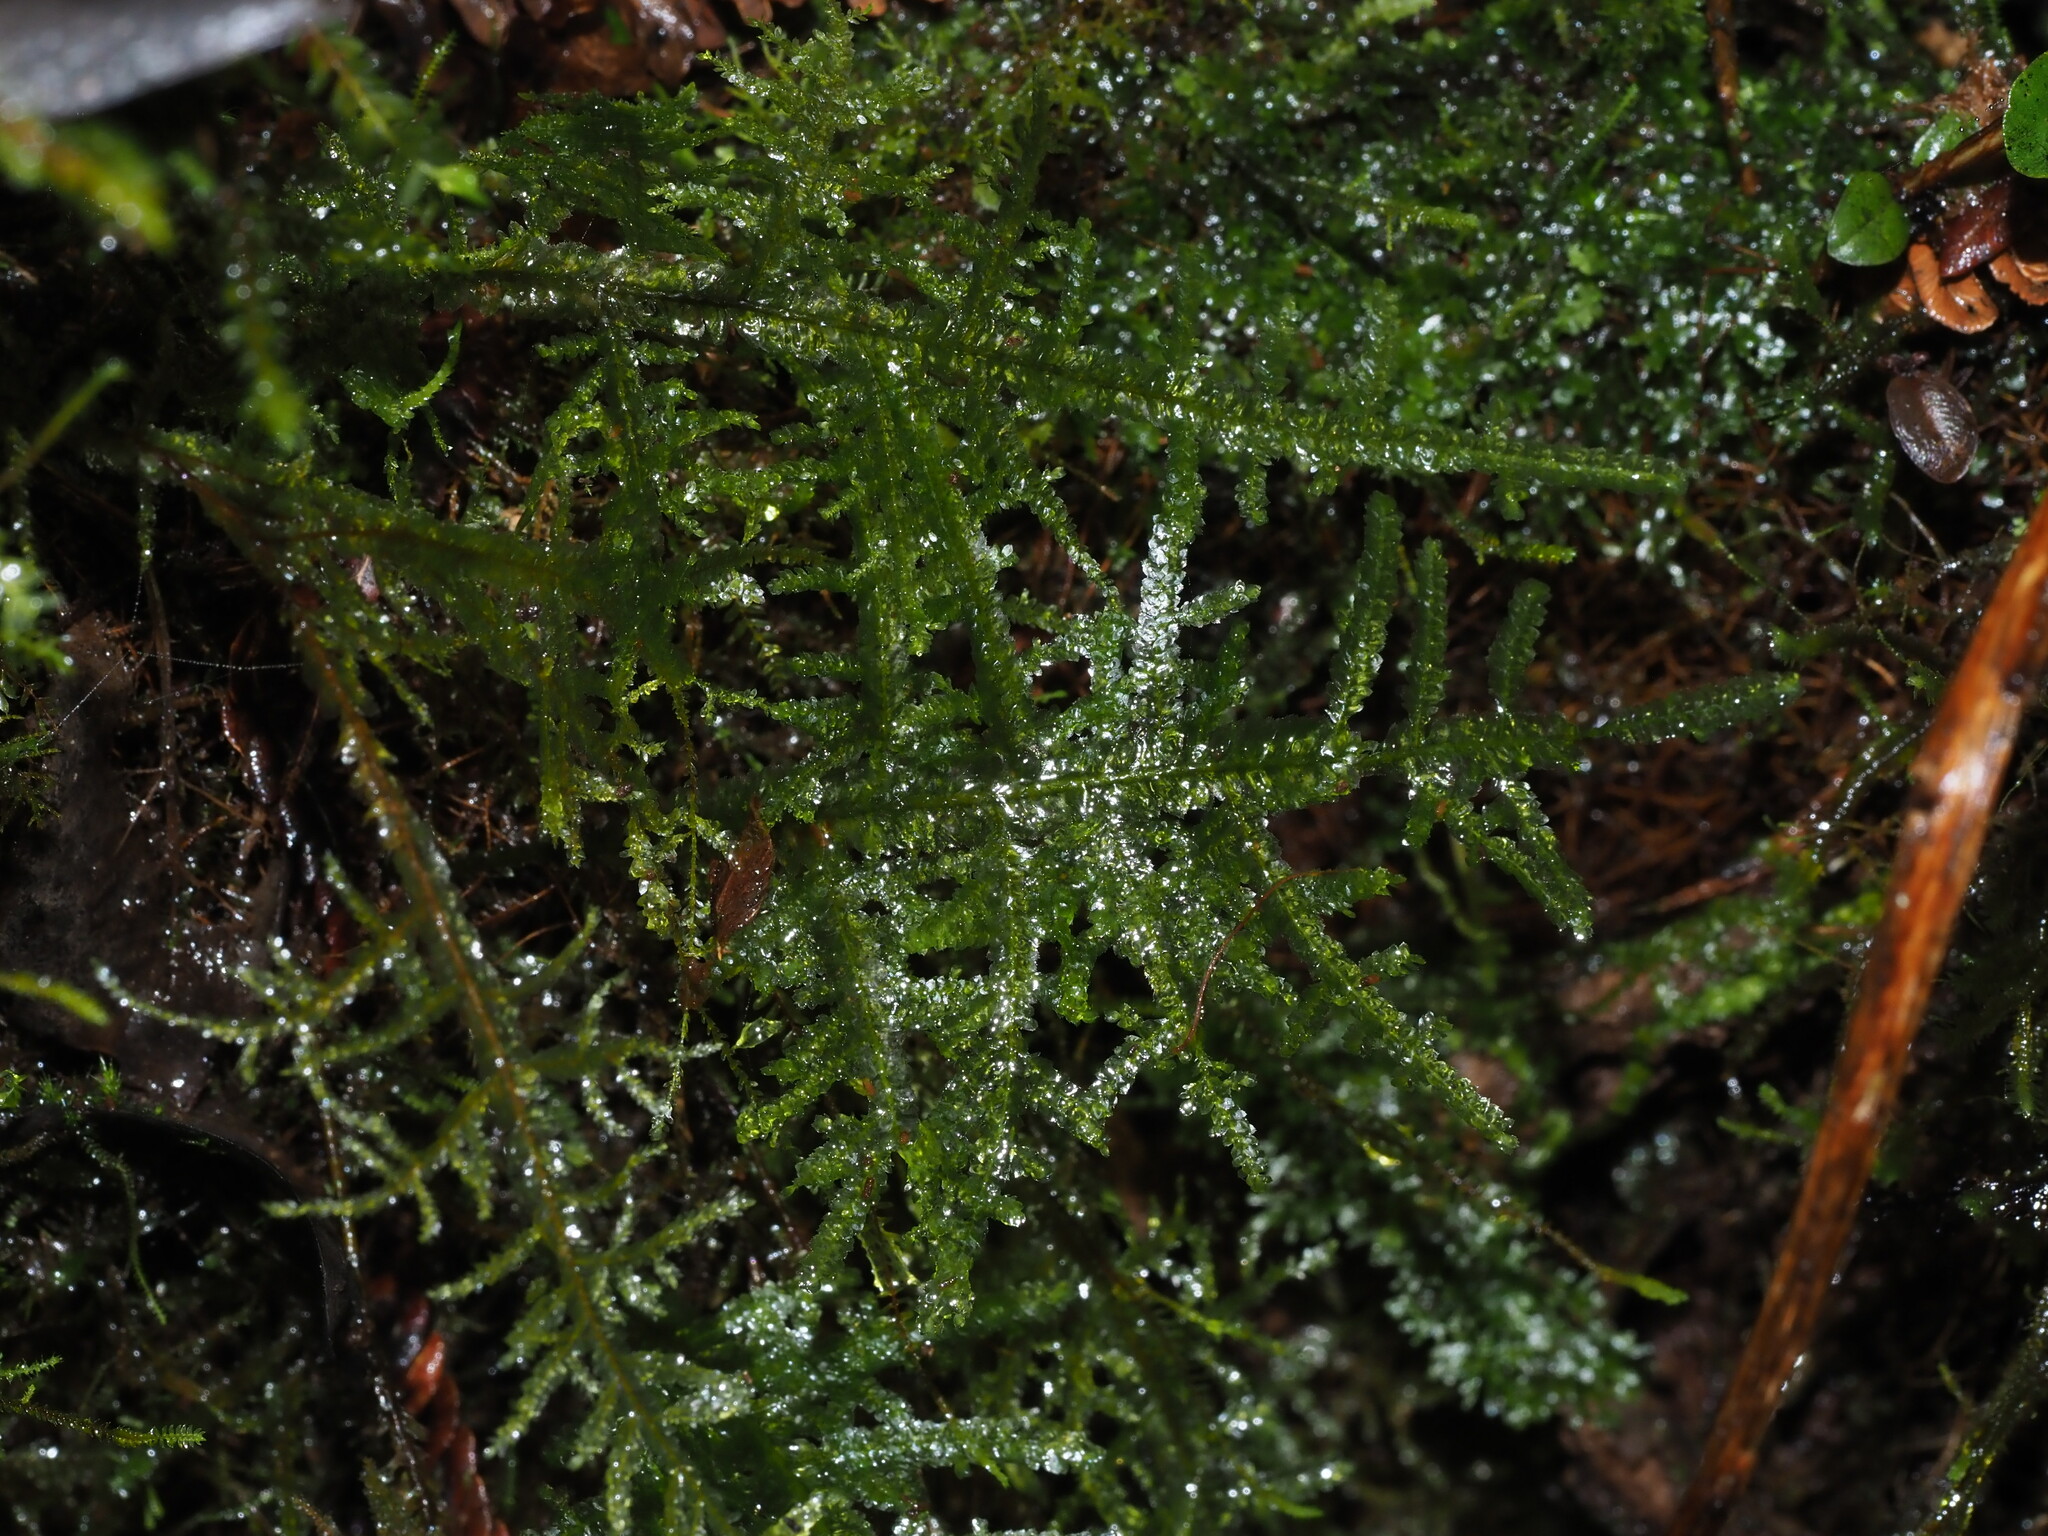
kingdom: Plantae
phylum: Bryophyta
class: Bryopsida
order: Hypnales
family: Neckeraceae
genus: Homaliodendron
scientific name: Homaliodendron flabellatum
